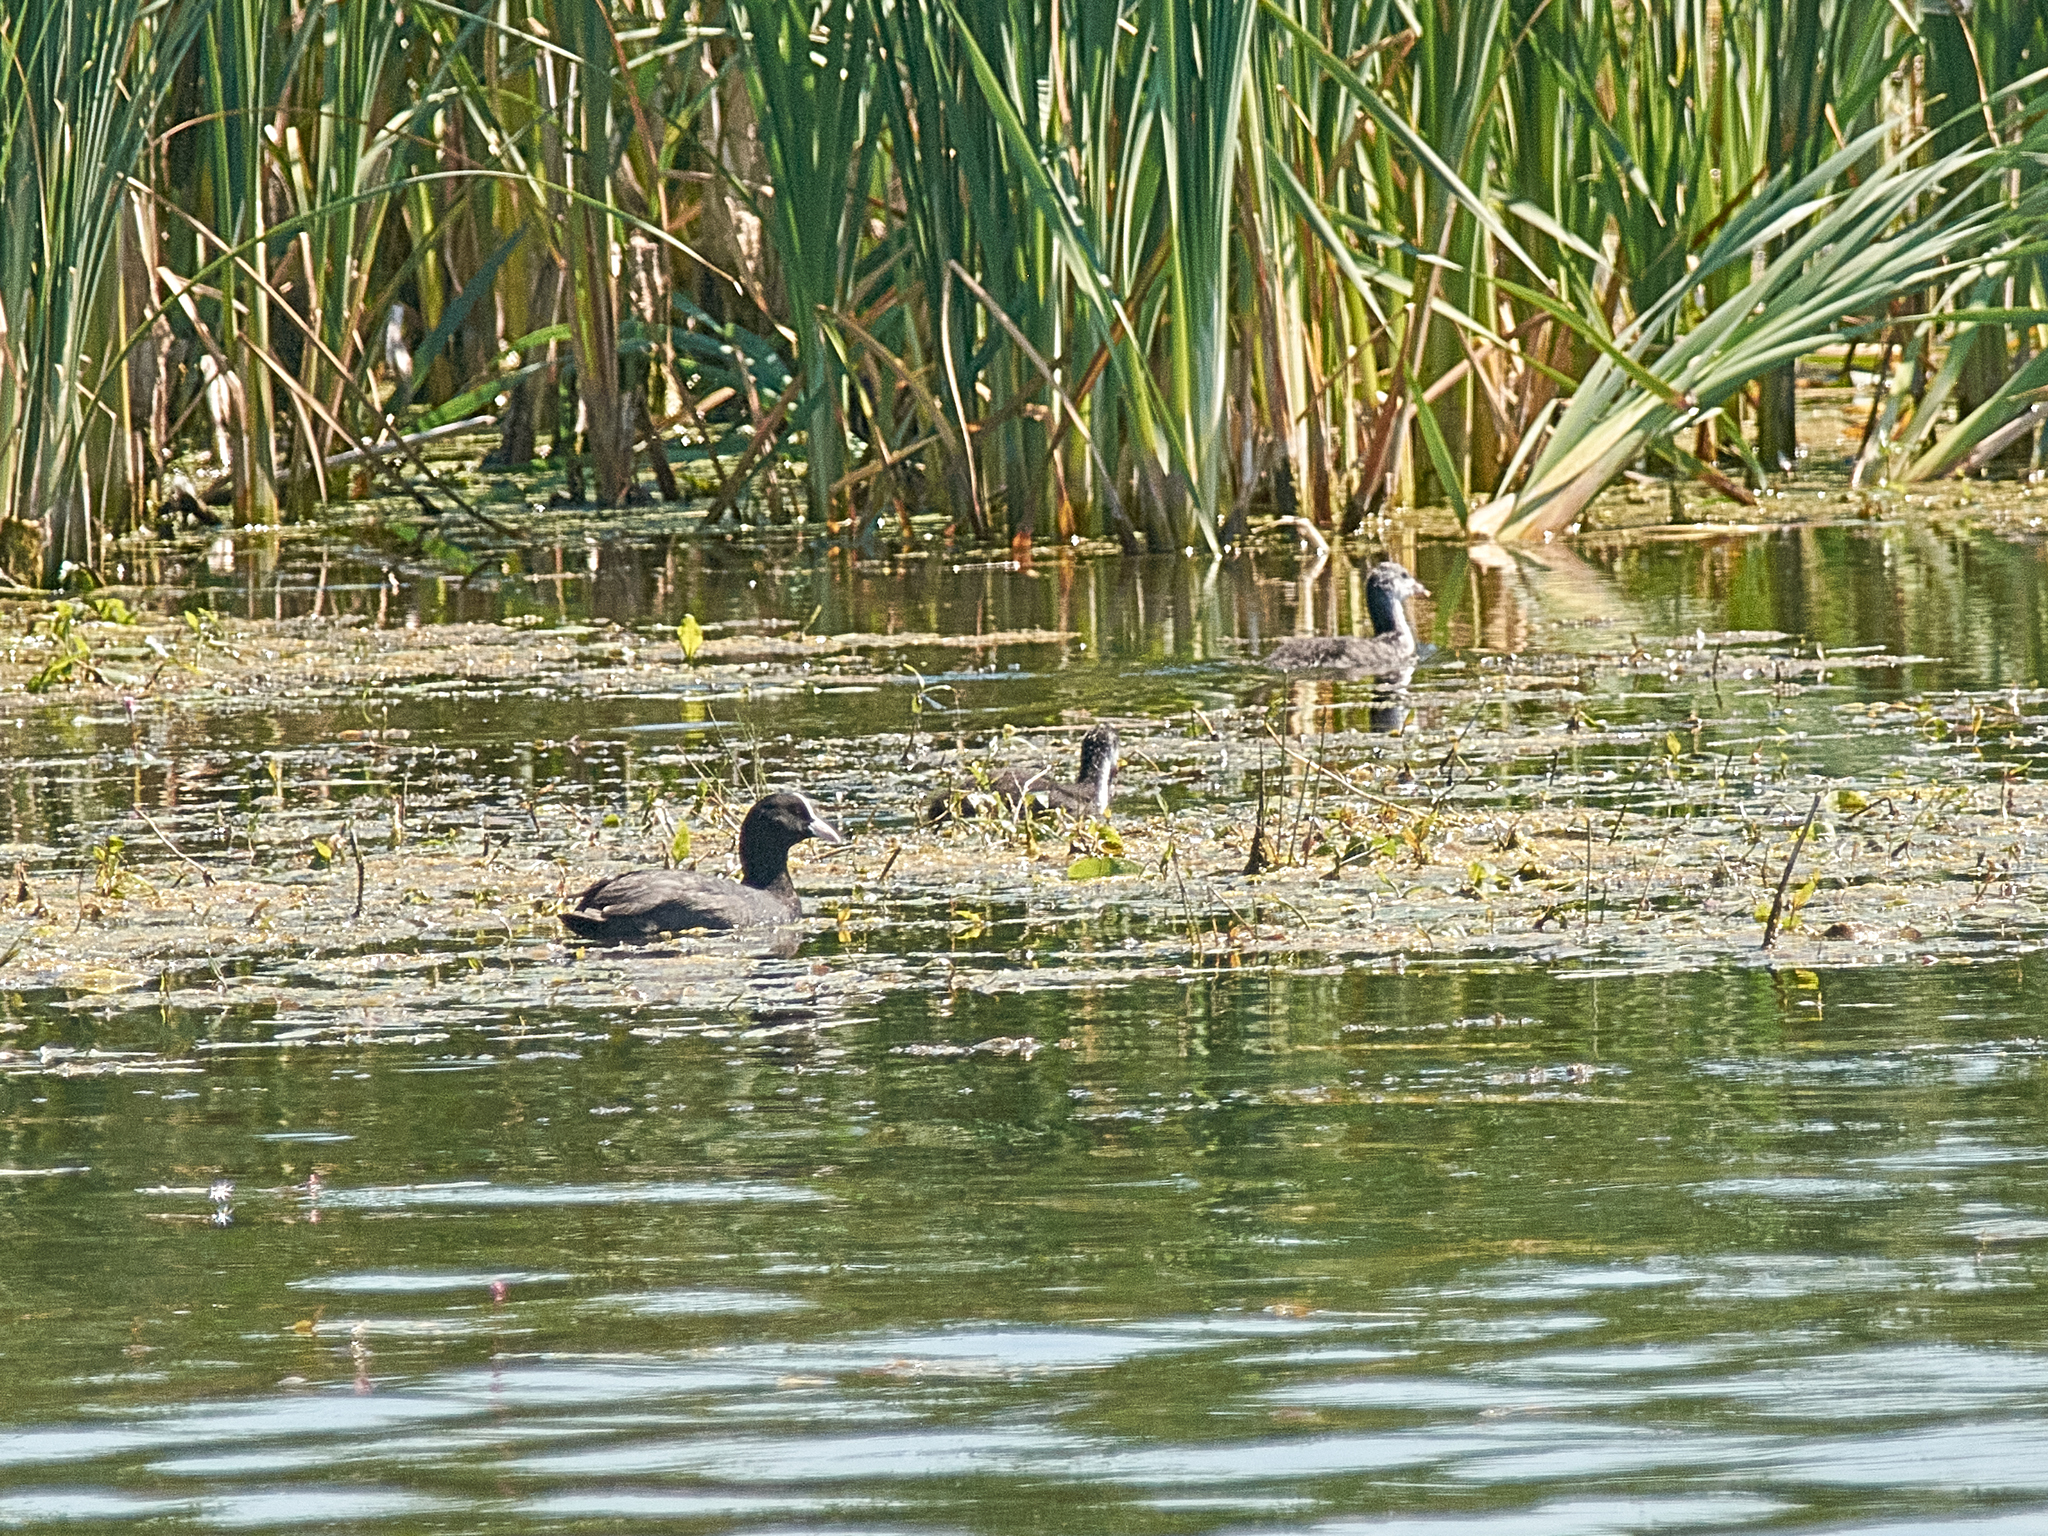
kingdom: Animalia
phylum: Chordata
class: Aves
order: Gruiformes
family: Rallidae
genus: Fulica
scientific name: Fulica atra
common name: Eurasian coot
